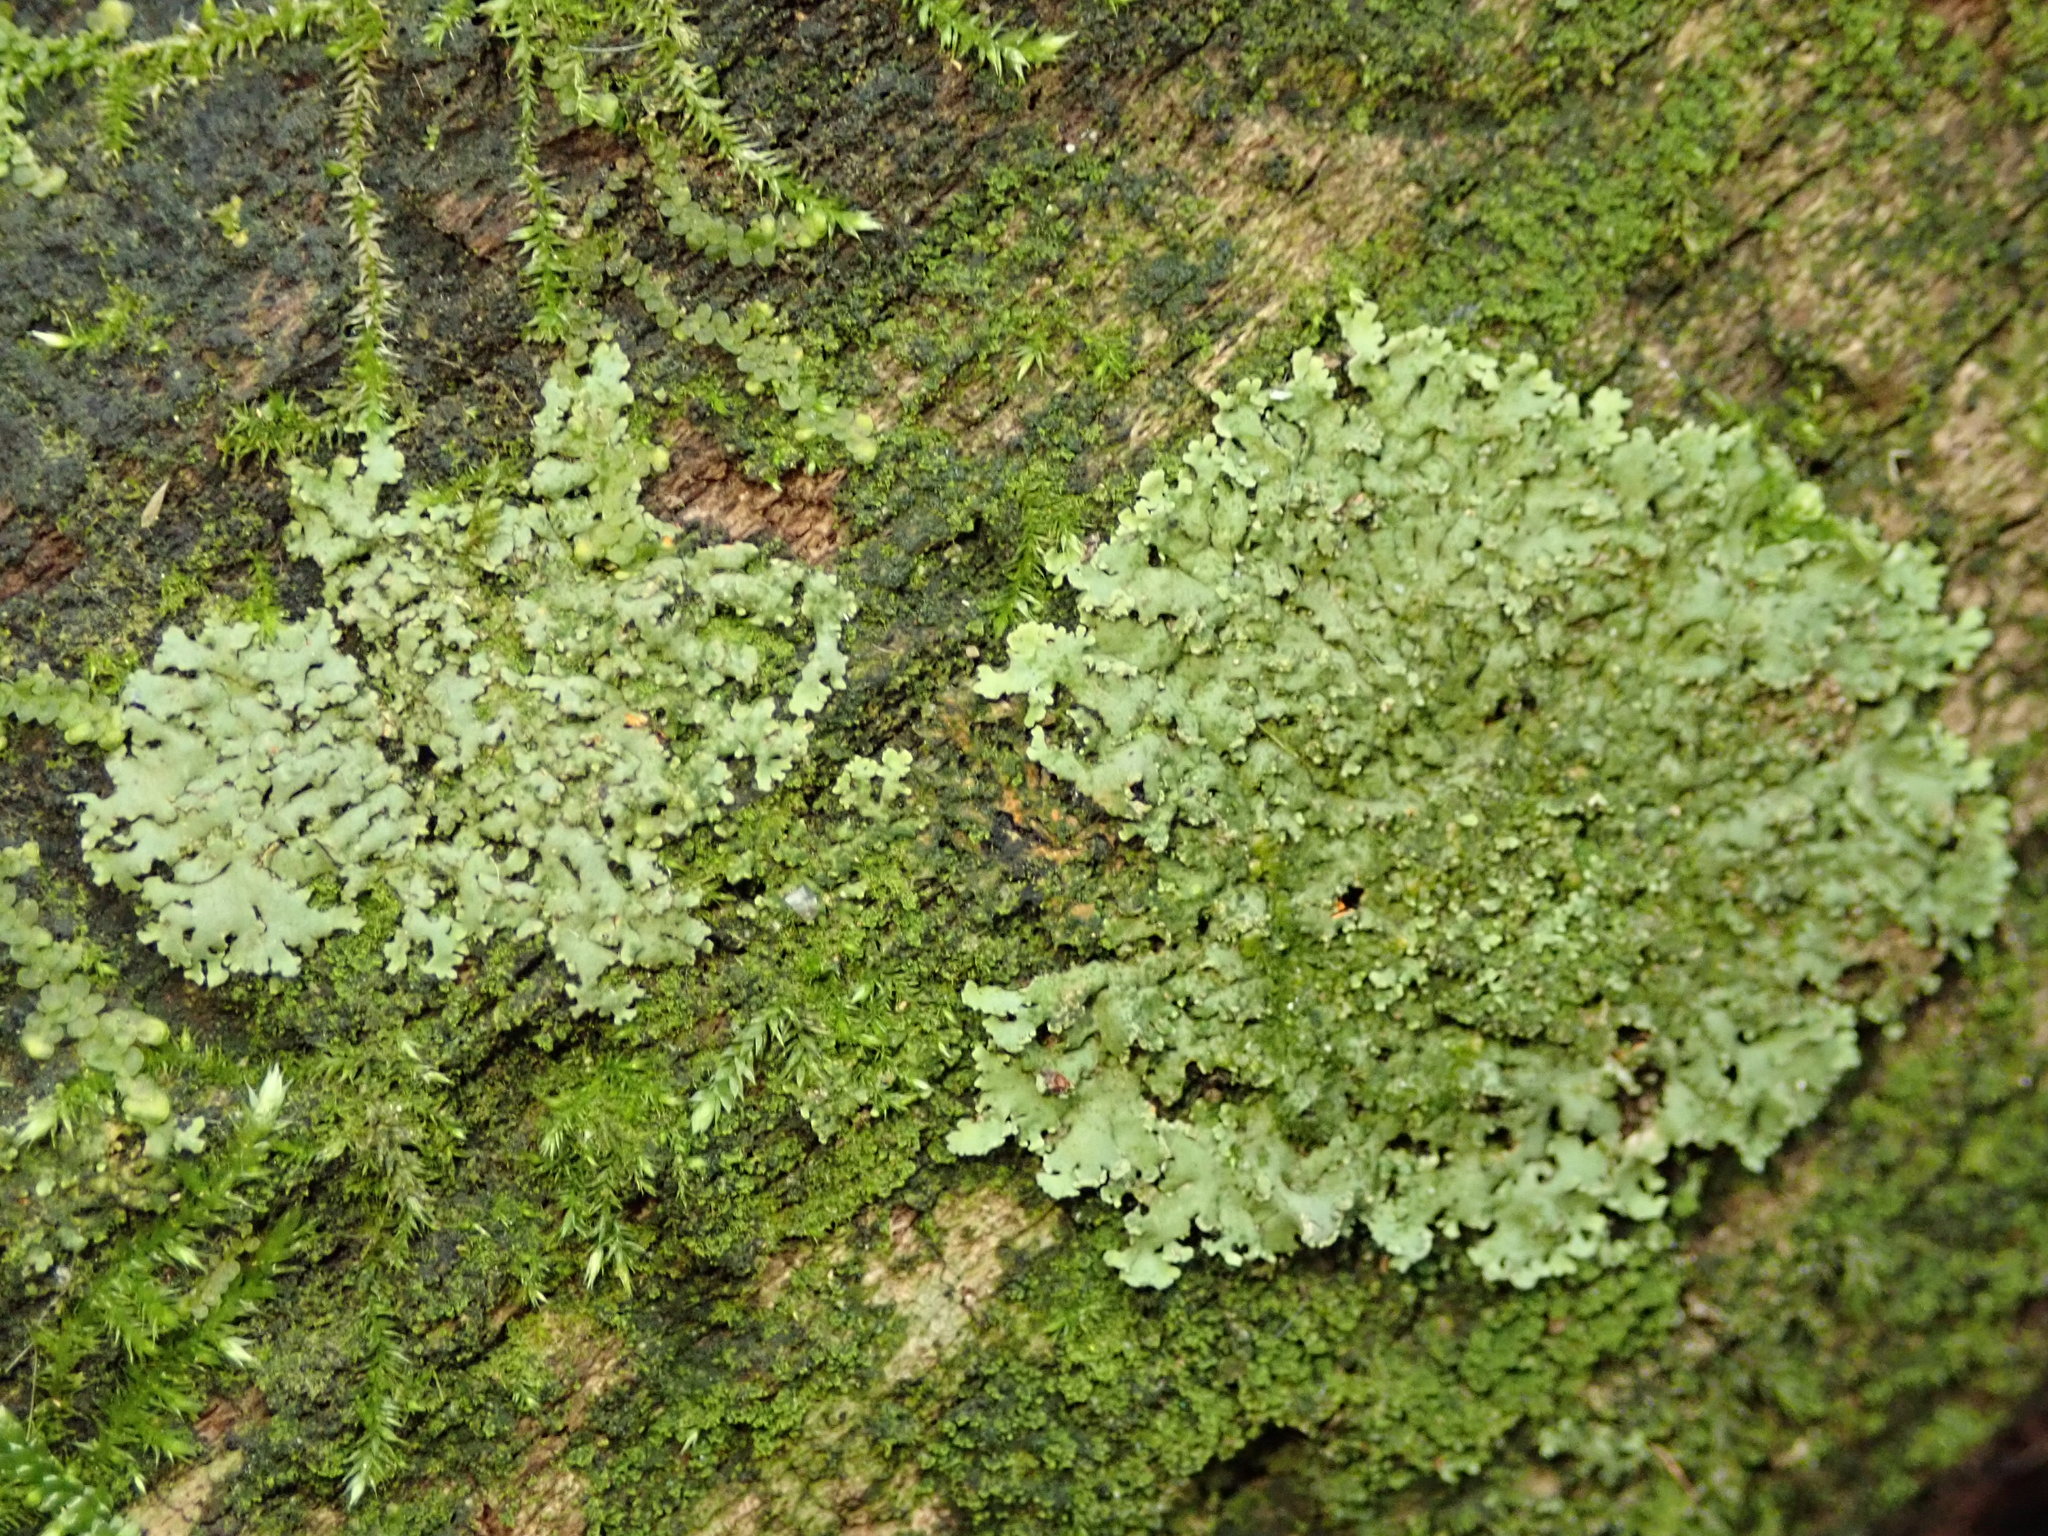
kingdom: Fungi
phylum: Ascomycota
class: Lecanoromycetes
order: Caliciales
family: Physciaceae
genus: Phaeophyscia
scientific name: Phaeophyscia rubropulchra
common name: Orange-cored shadow lichen
